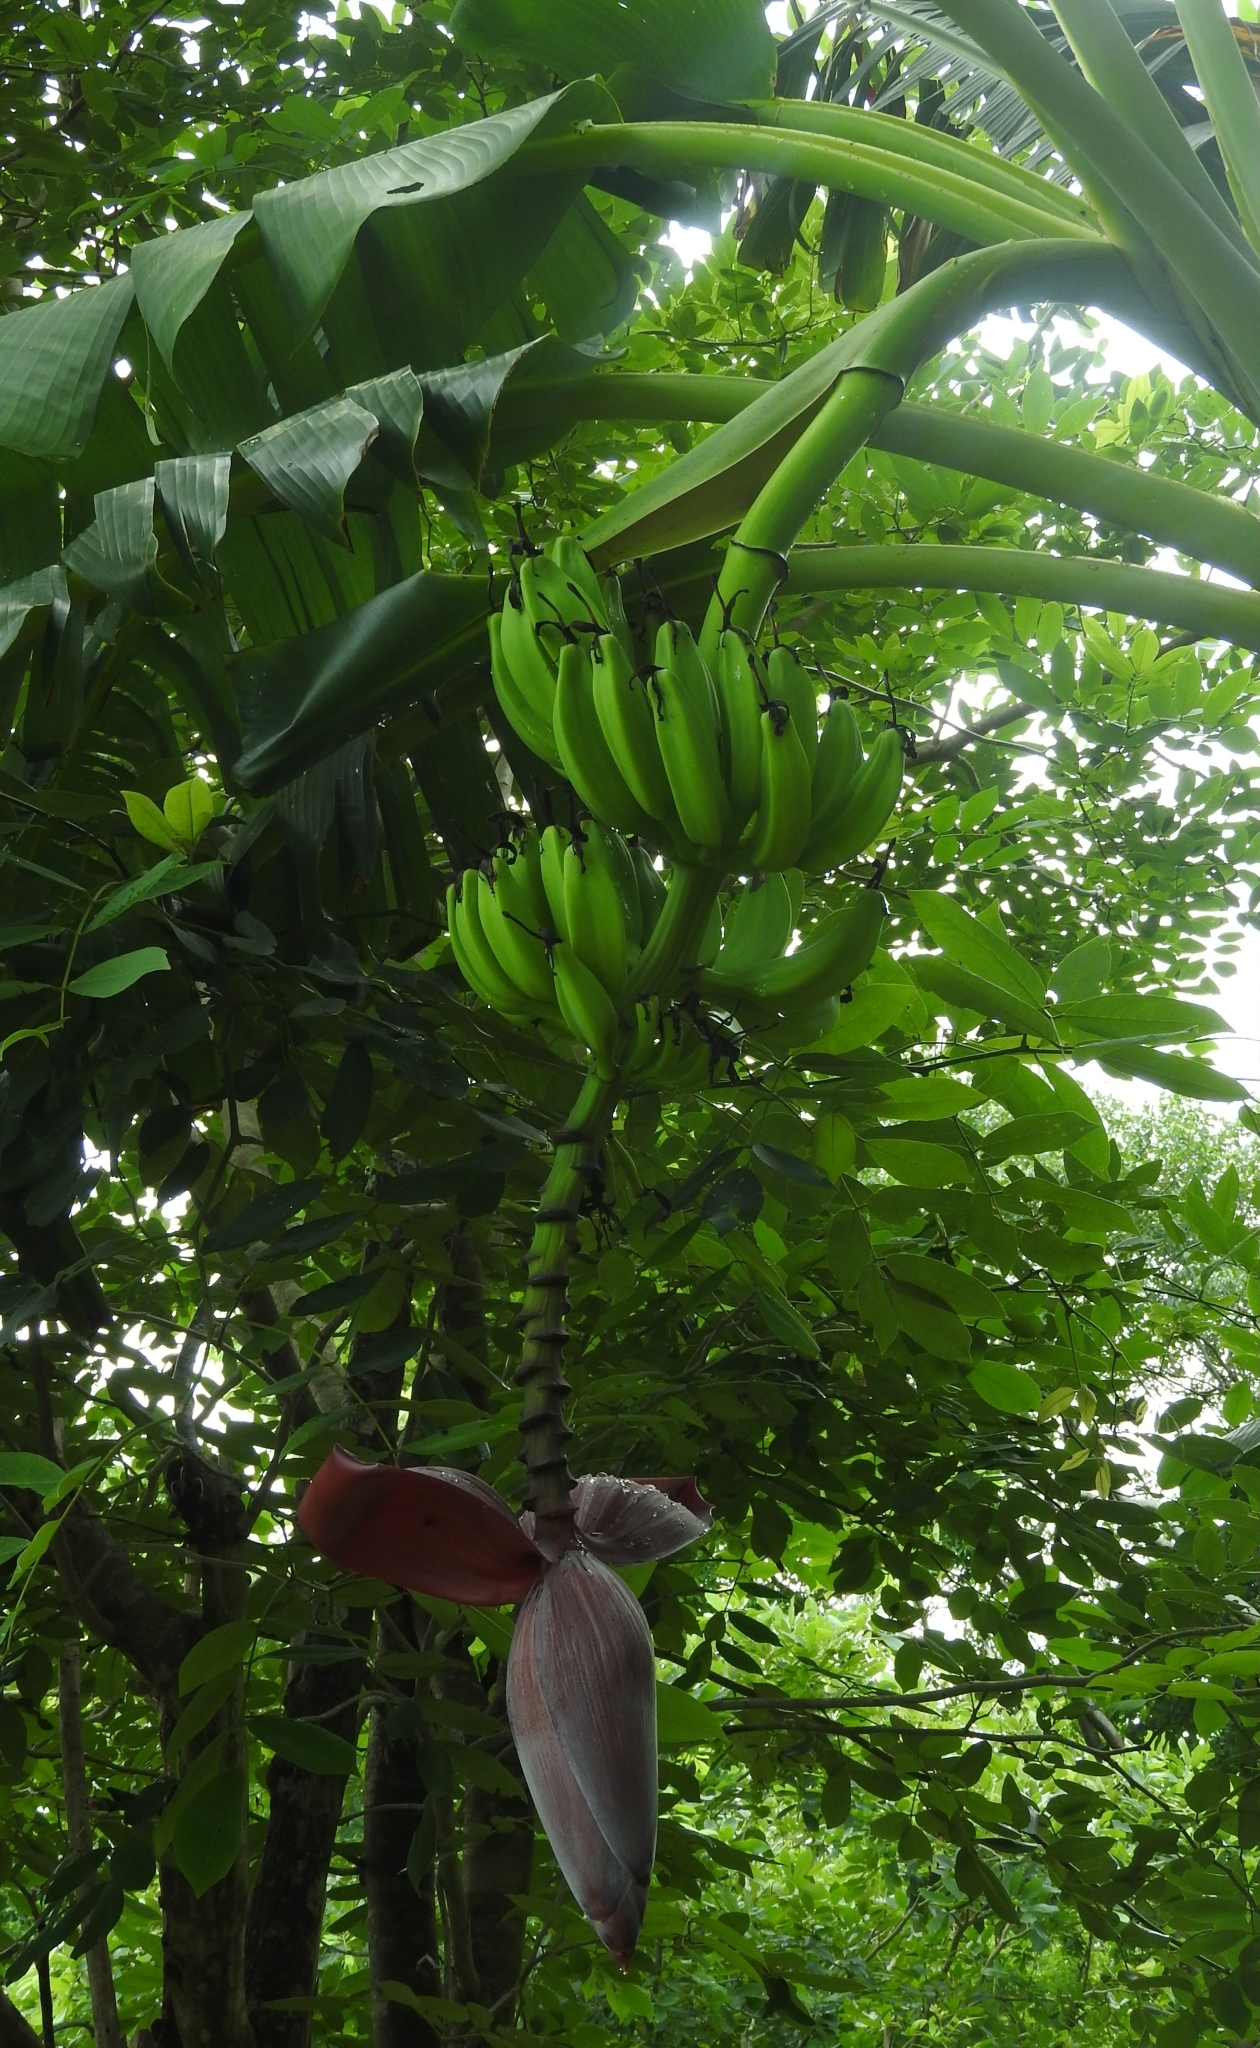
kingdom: Plantae
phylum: Tracheophyta
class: Liliopsida
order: Zingiberales
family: Musaceae
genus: Musa
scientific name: Musa paradisiaca
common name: French plantain
